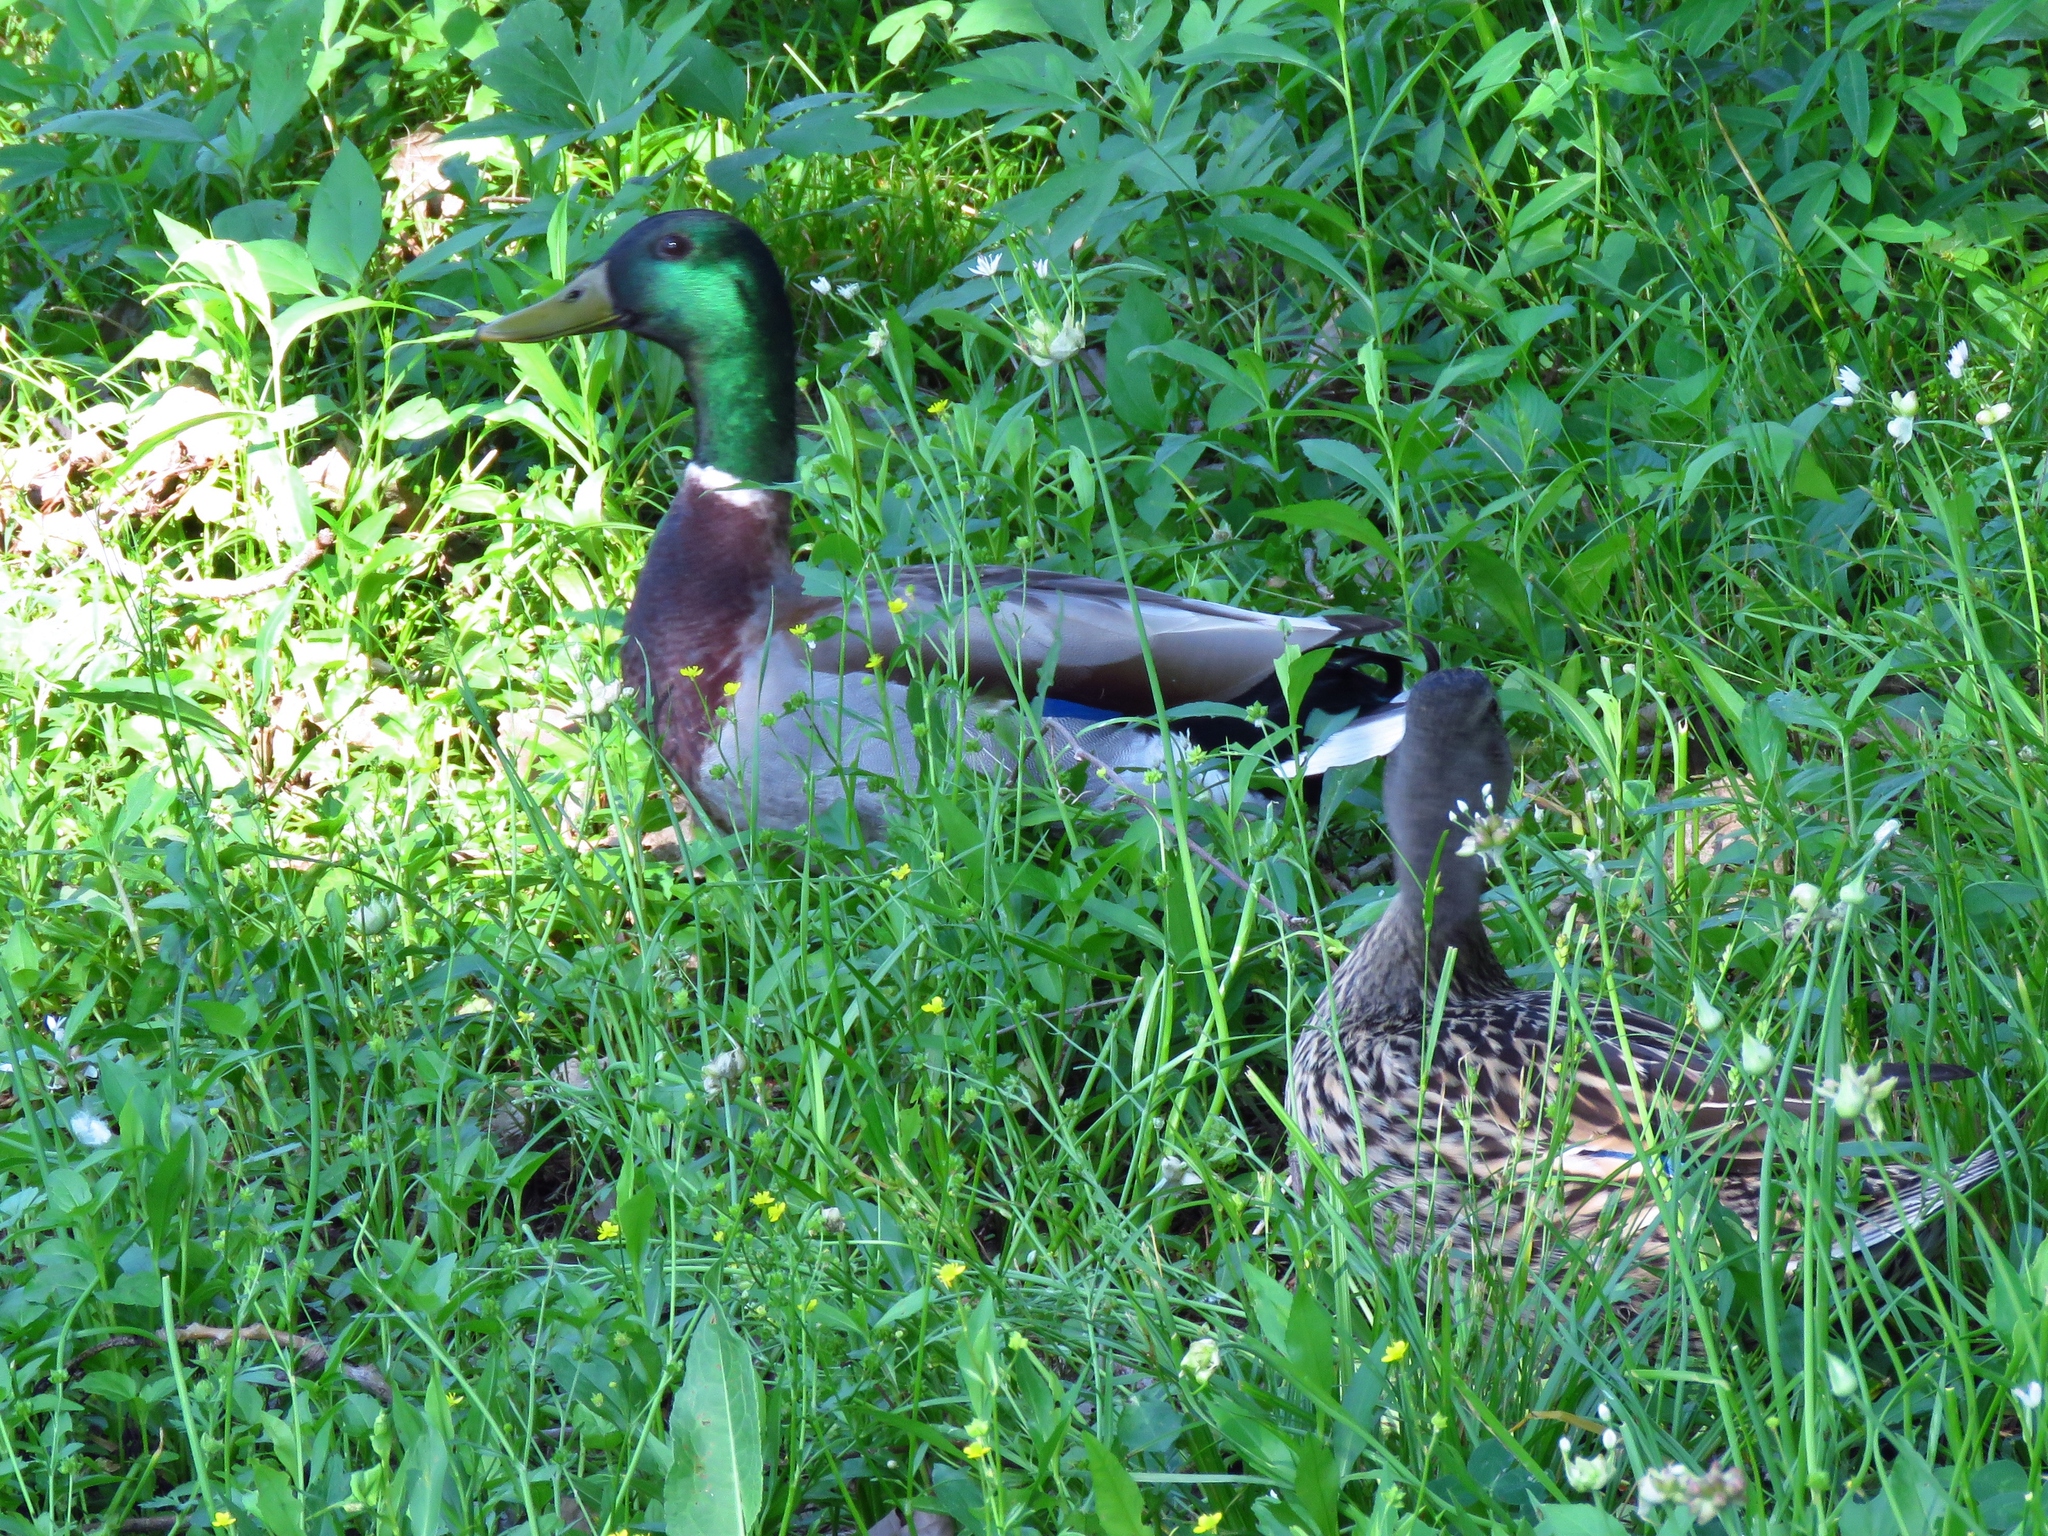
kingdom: Animalia
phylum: Chordata
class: Aves
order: Anseriformes
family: Anatidae
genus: Anas
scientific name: Anas platyrhynchos
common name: Mallard
